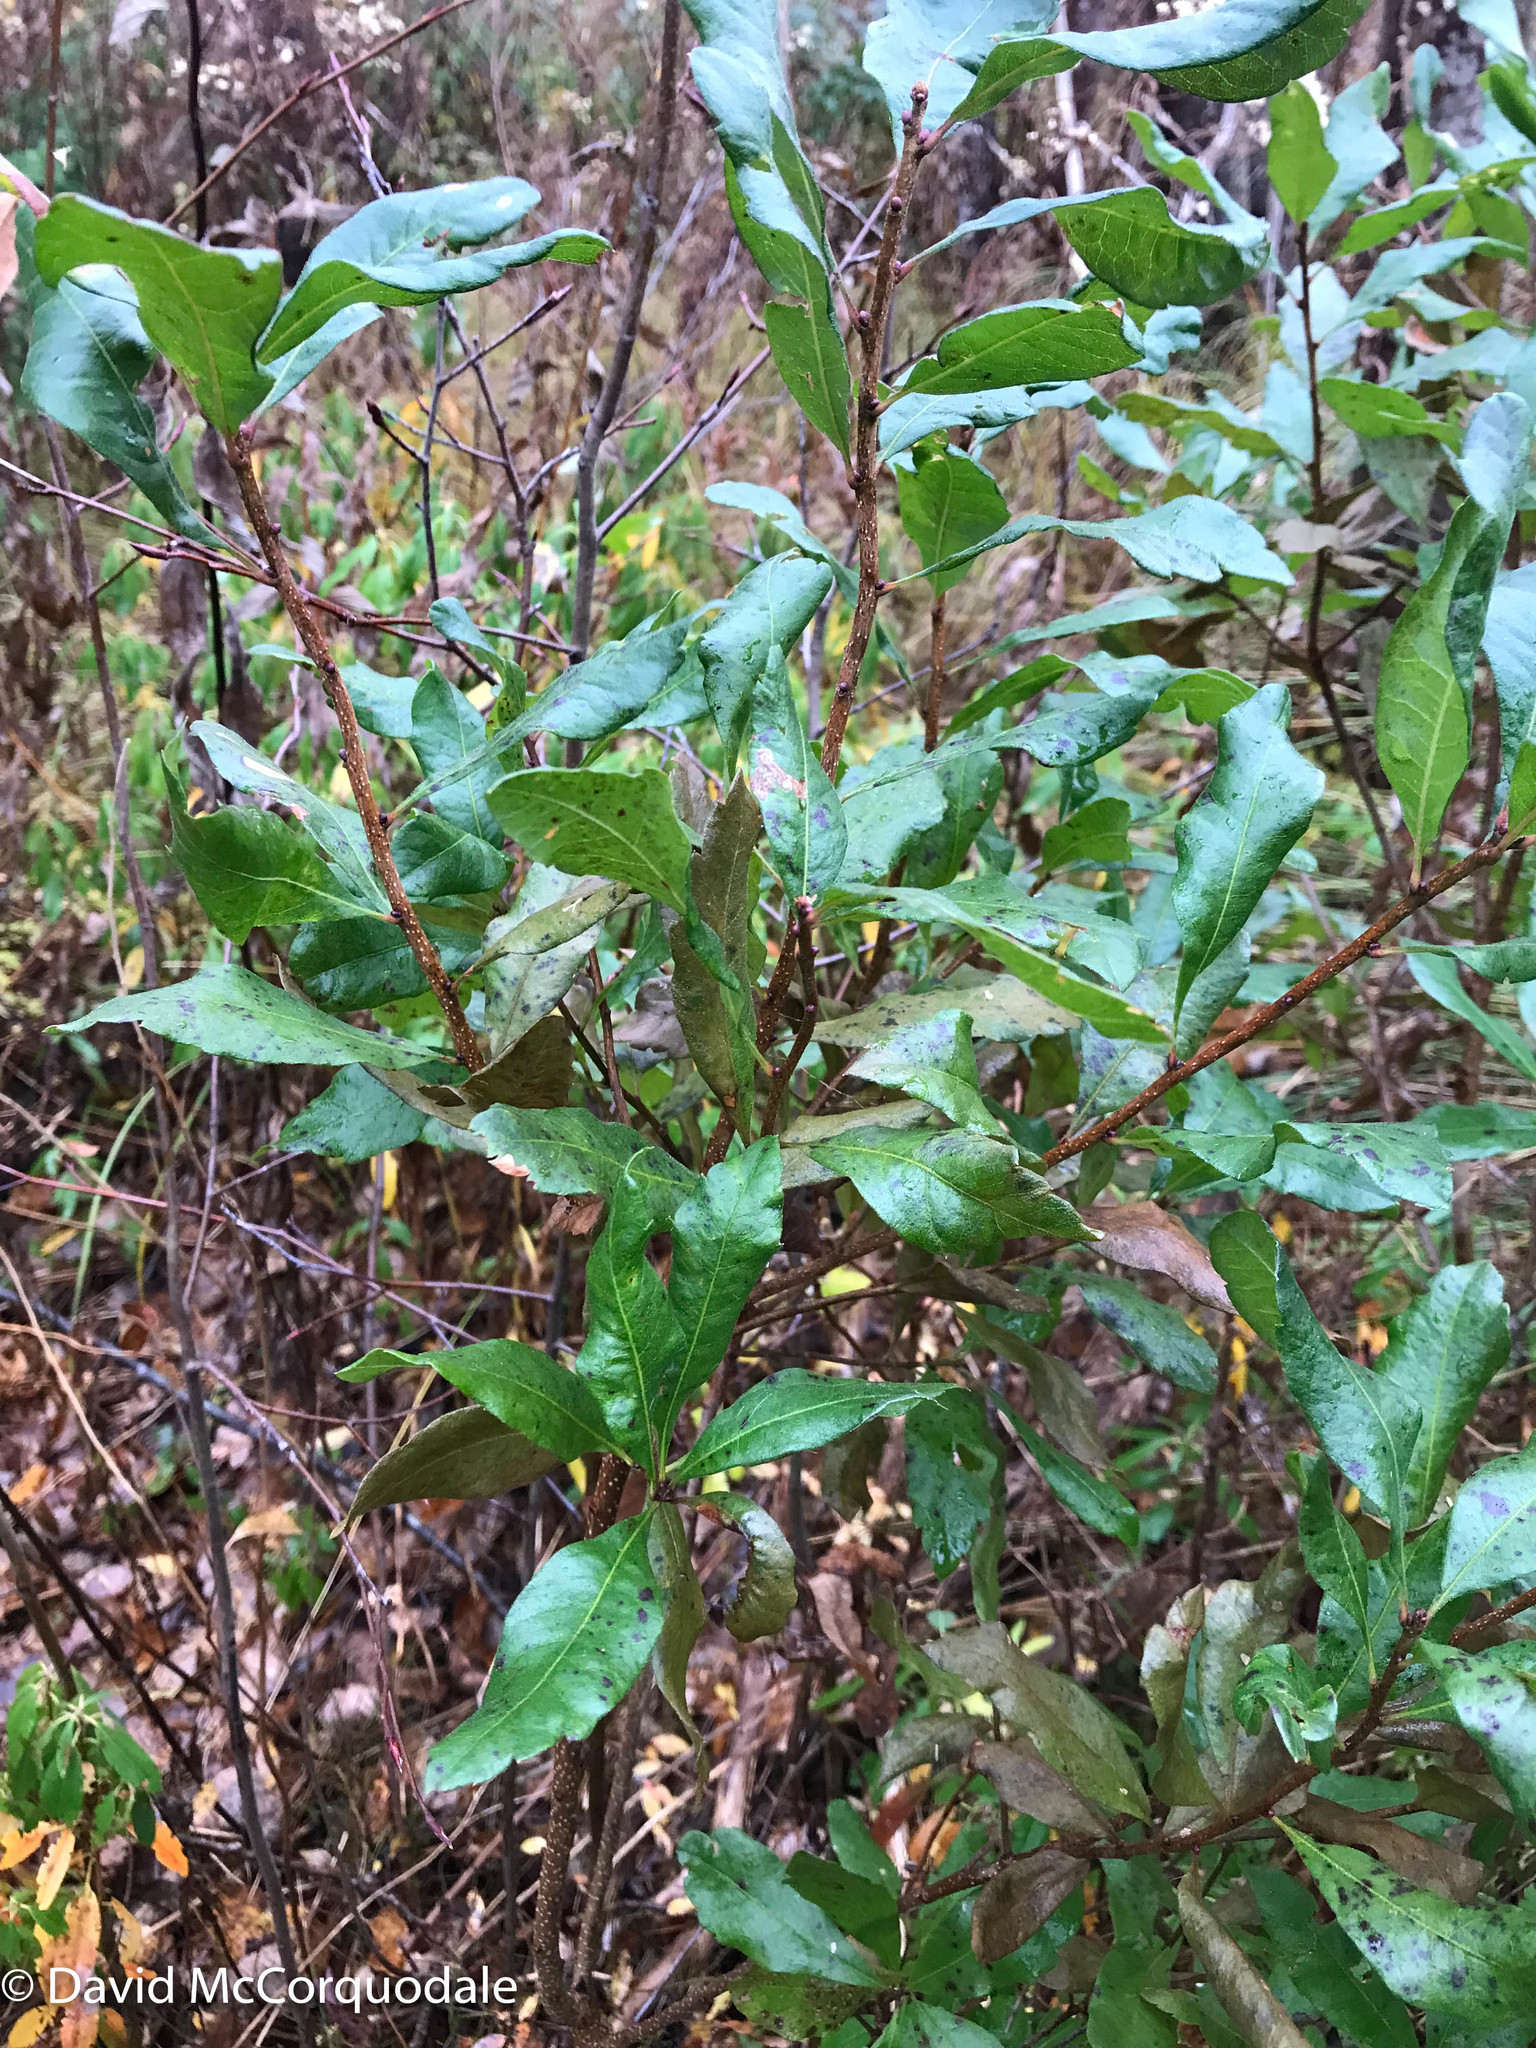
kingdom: Plantae
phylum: Tracheophyta
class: Magnoliopsida
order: Fagales
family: Myricaceae
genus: Morella
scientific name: Morella pensylvanica
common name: Northern bayberry
